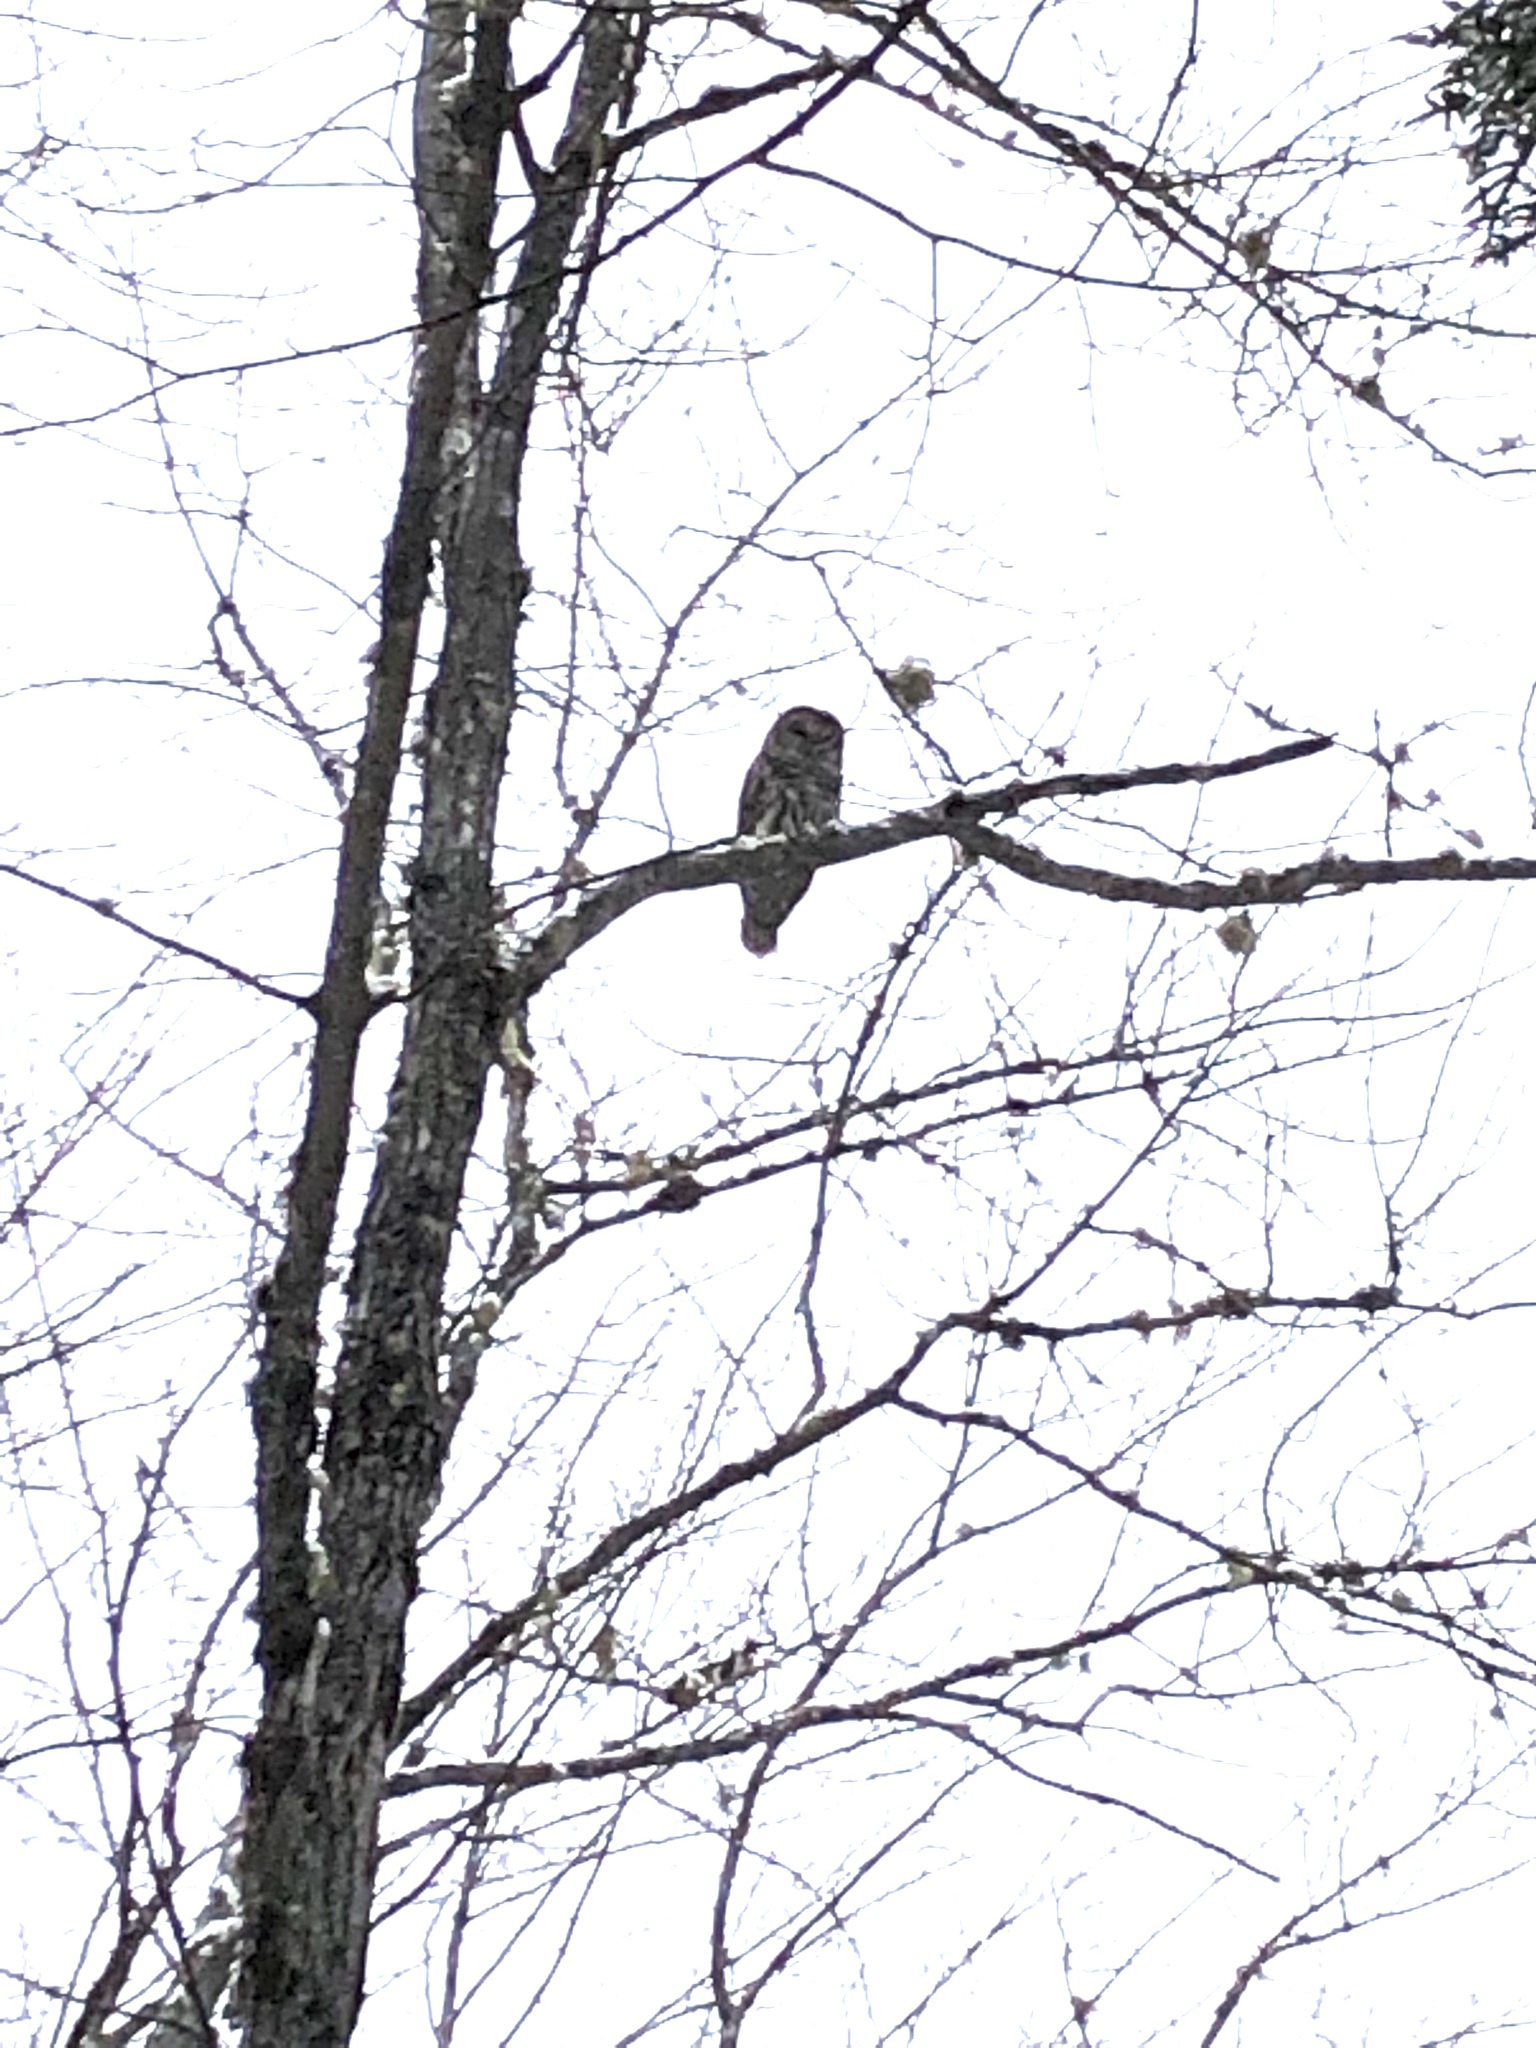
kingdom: Animalia
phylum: Chordata
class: Aves
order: Strigiformes
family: Strigidae
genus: Strix
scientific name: Strix varia
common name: Barred owl
